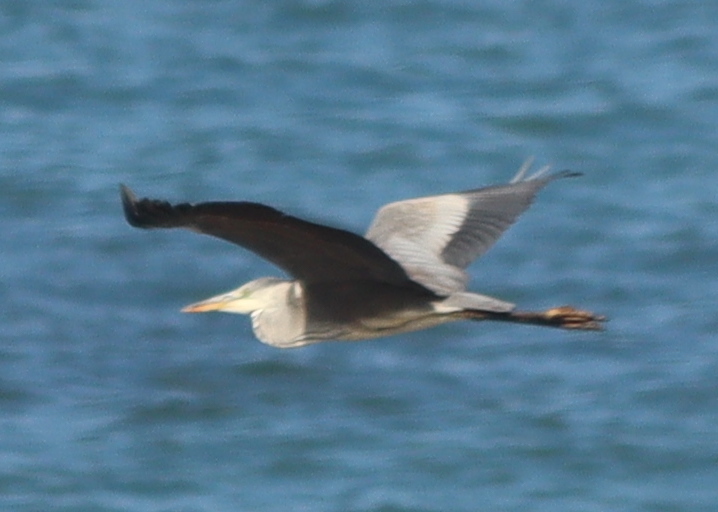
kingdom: Animalia
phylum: Chordata
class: Aves
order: Pelecaniformes
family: Ardeidae
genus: Ardea
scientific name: Ardea cinerea
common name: Grey heron
